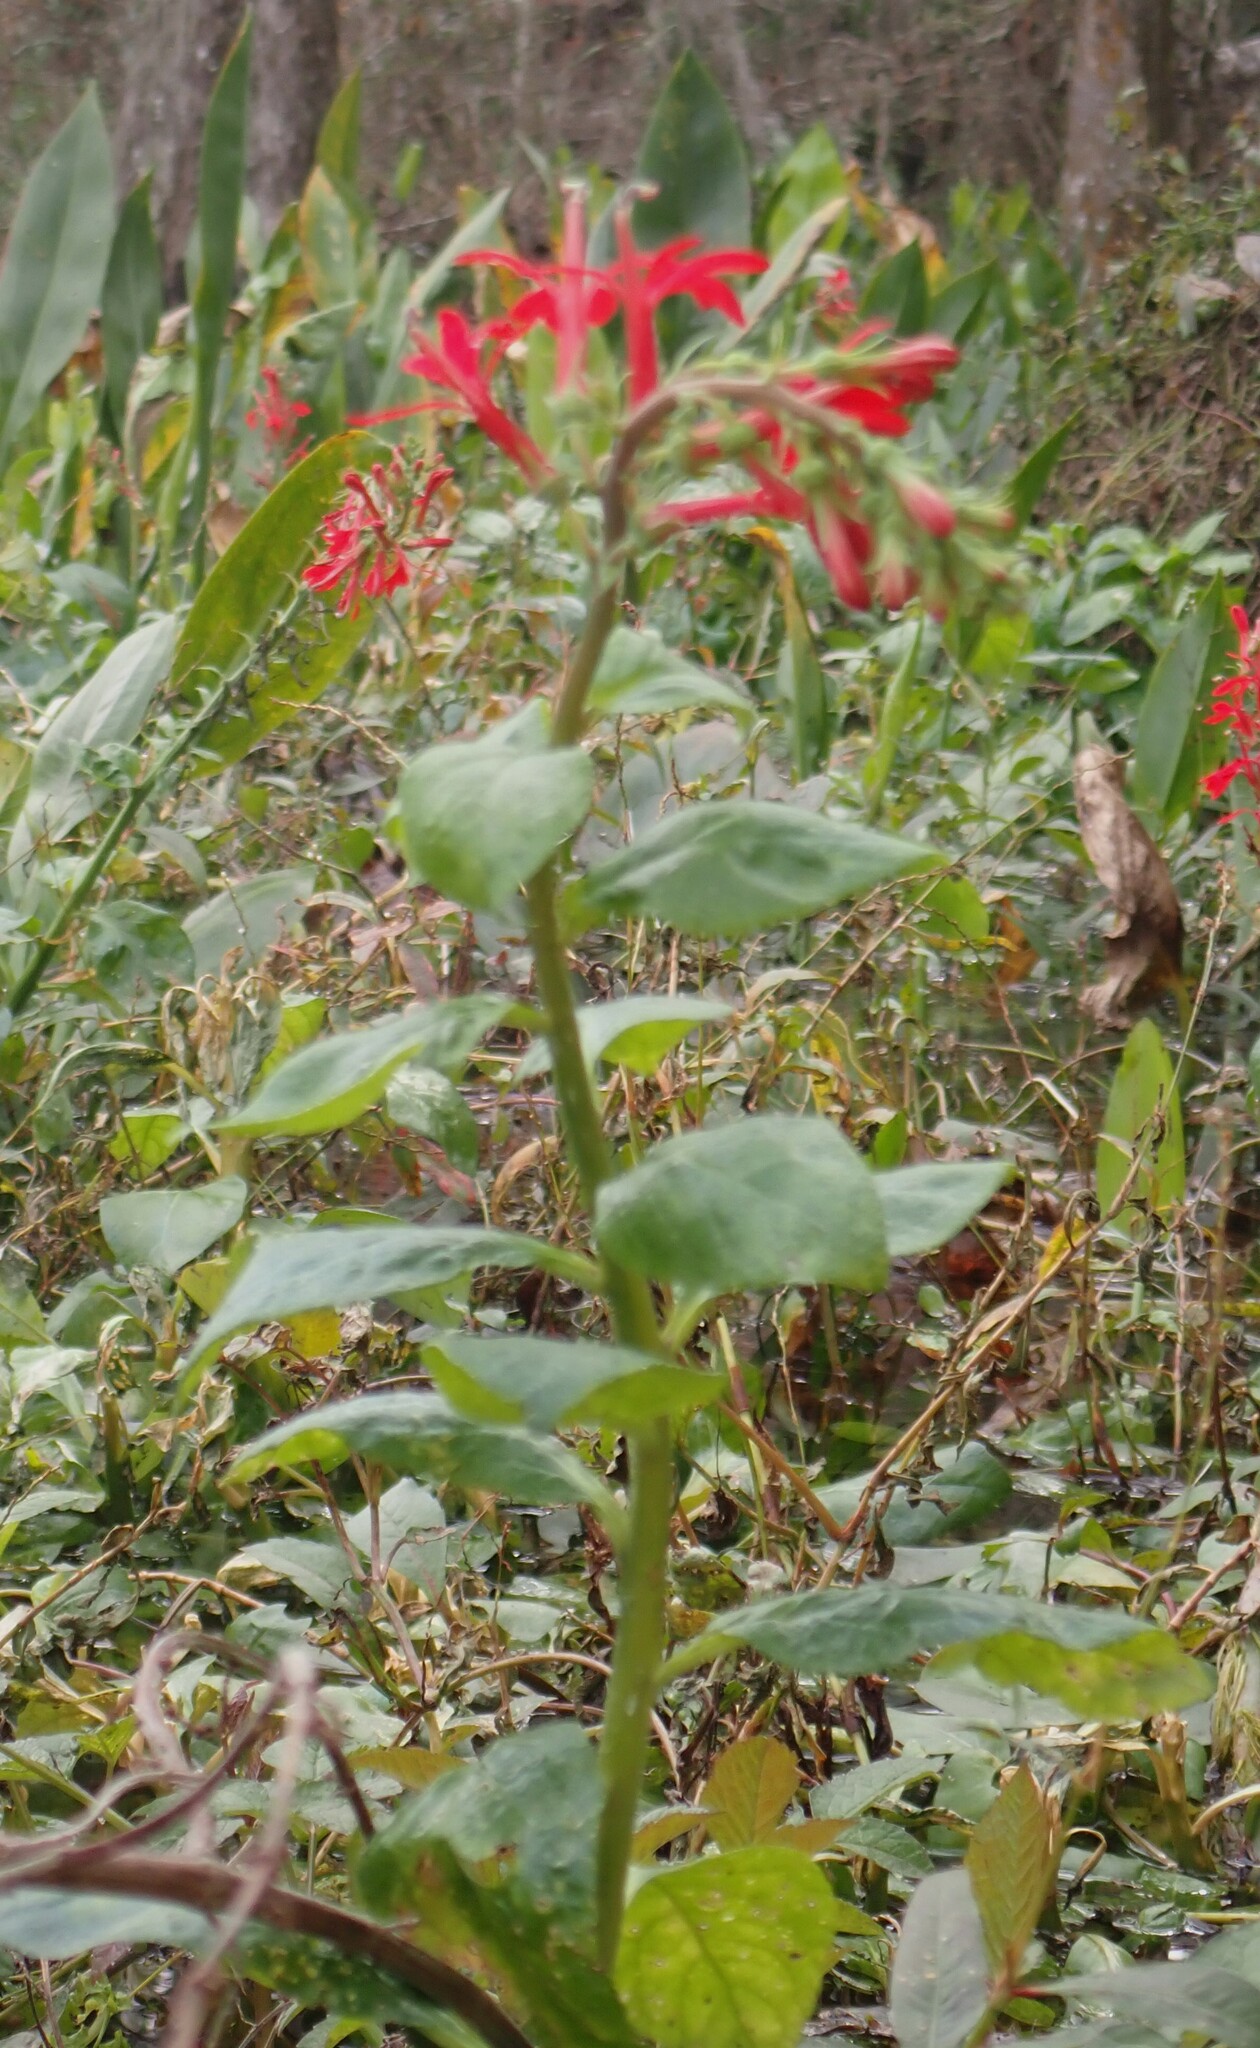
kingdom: Plantae
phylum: Tracheophyta
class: Magnoliopsida
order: Asterales
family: Campanulaceae
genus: Lobelia
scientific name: Lobelia cardinalis
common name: Cardinal flower
